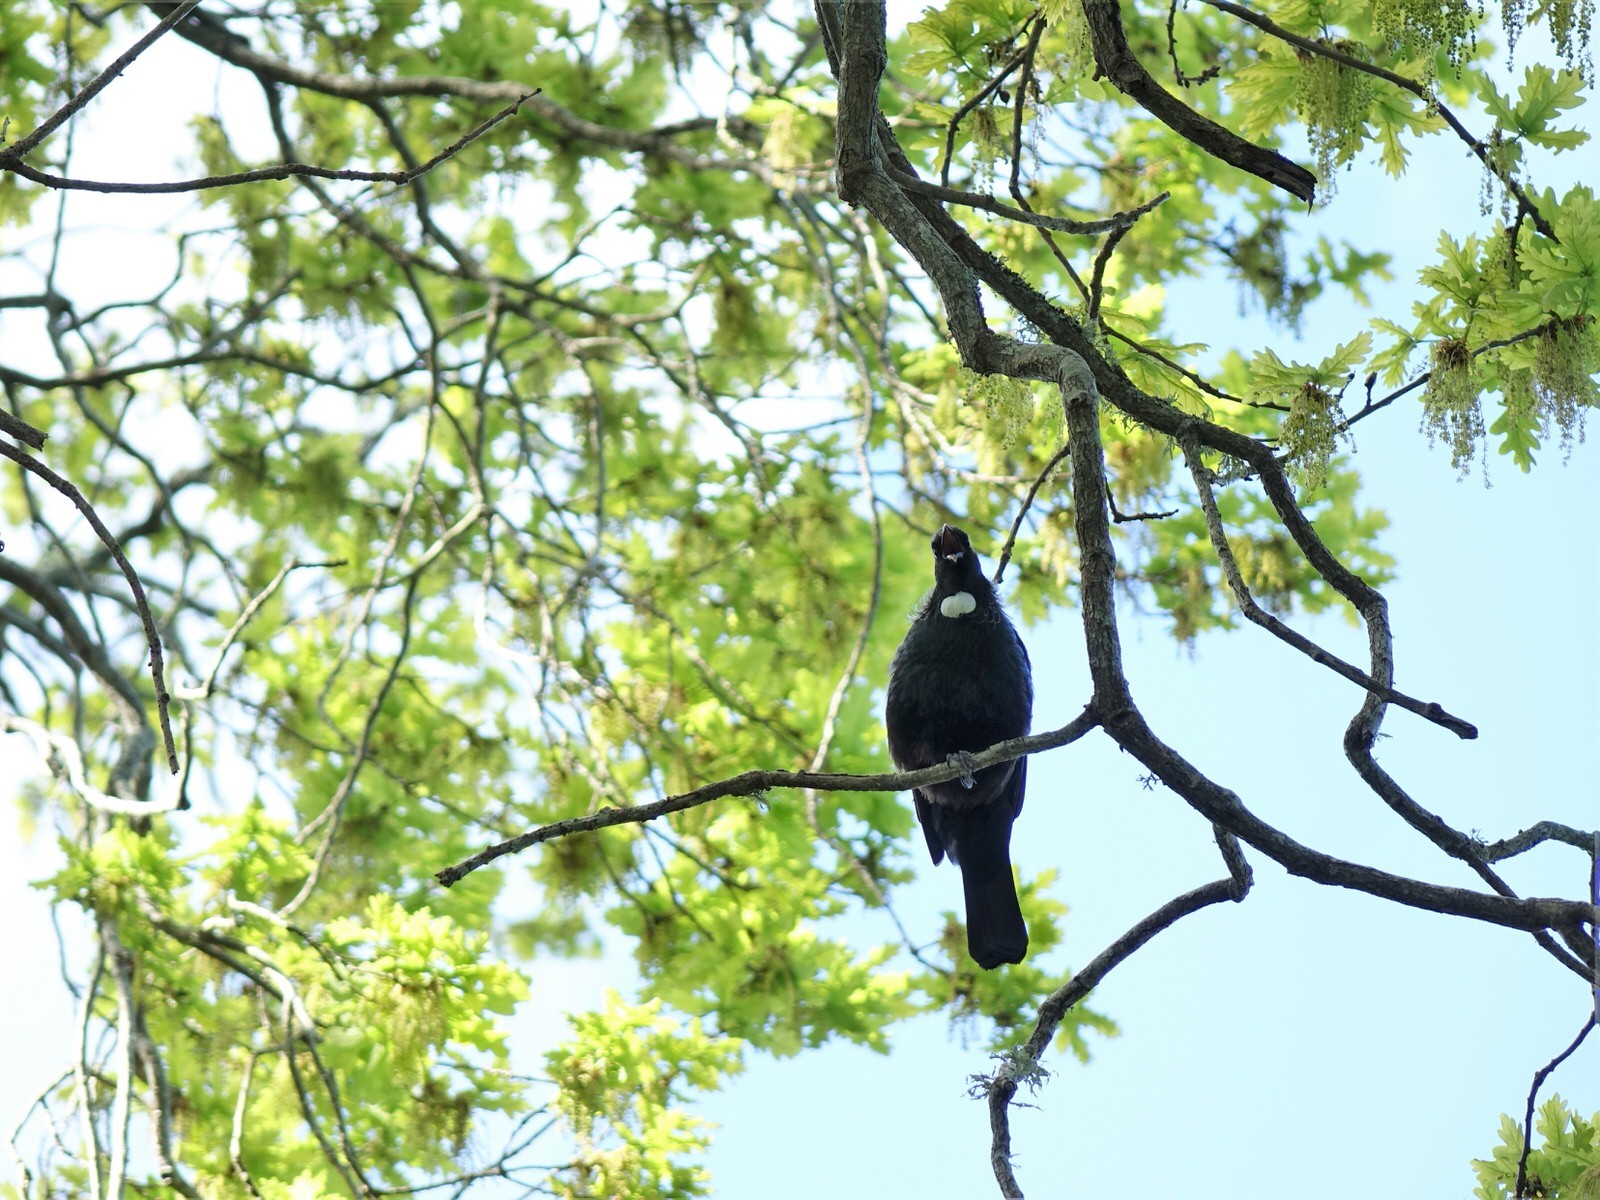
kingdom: Animalia
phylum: Chordata
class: Aves
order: Passeriformes
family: Meliphagidae
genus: Prosthemadera
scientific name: Prosthemadera novaeseelandiae
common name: Tui
